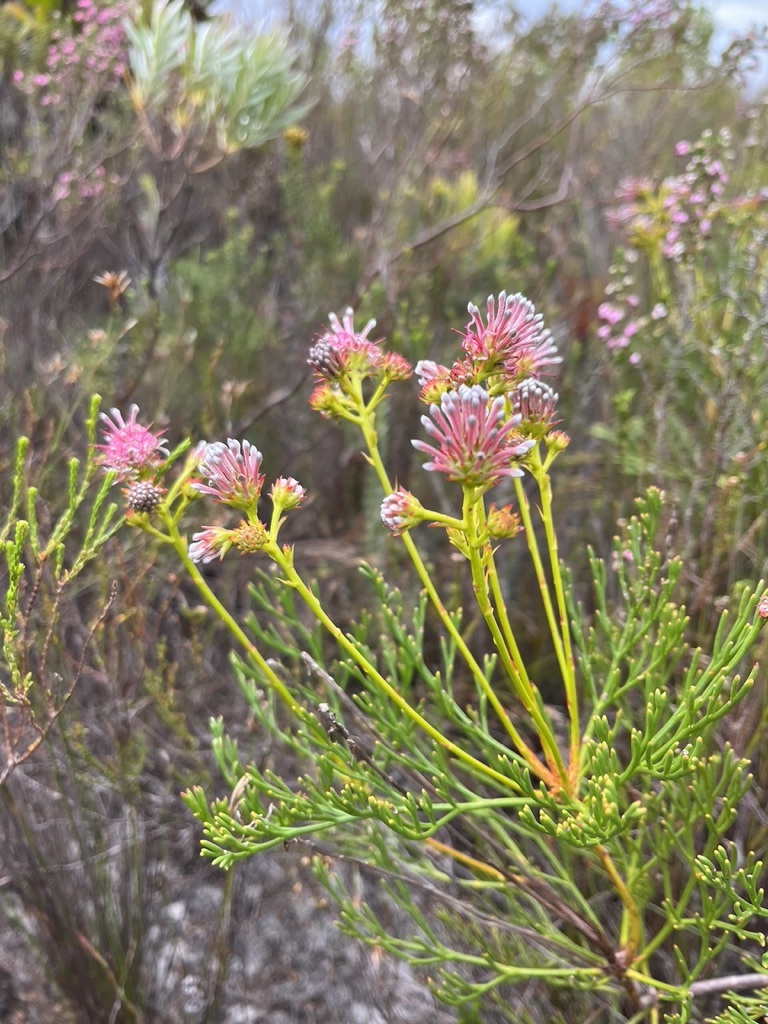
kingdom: Plantae
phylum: Tracheophyta
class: Magnoliopsida
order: Proteales
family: Proteaceae
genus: Serruria
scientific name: Serruria elongata
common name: Long-stalk spiderhead
